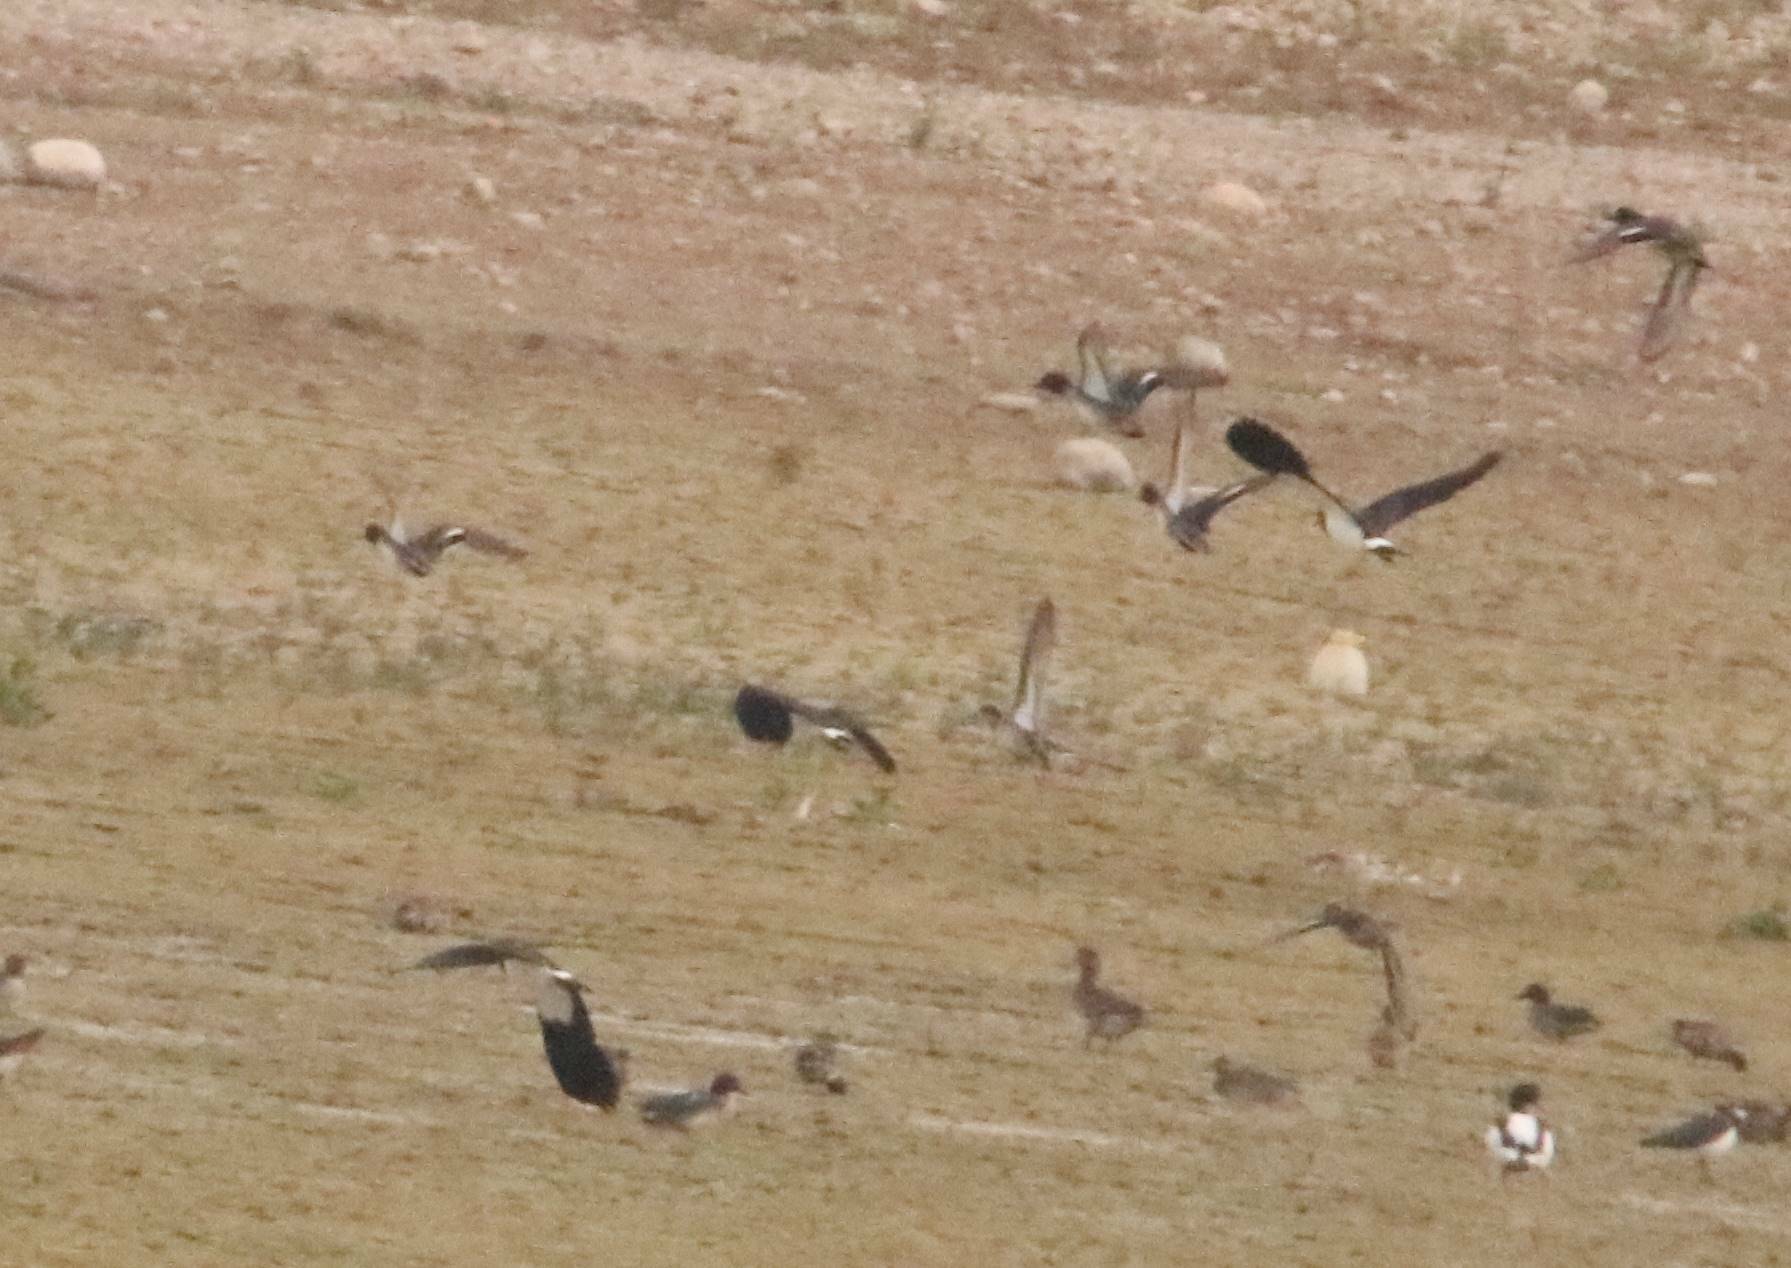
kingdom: Animalia
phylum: Chordata
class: Aves
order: Anseriformes
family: Anatidae
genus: Mareca
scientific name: Mareca penelope
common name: Eurasian wigeon
